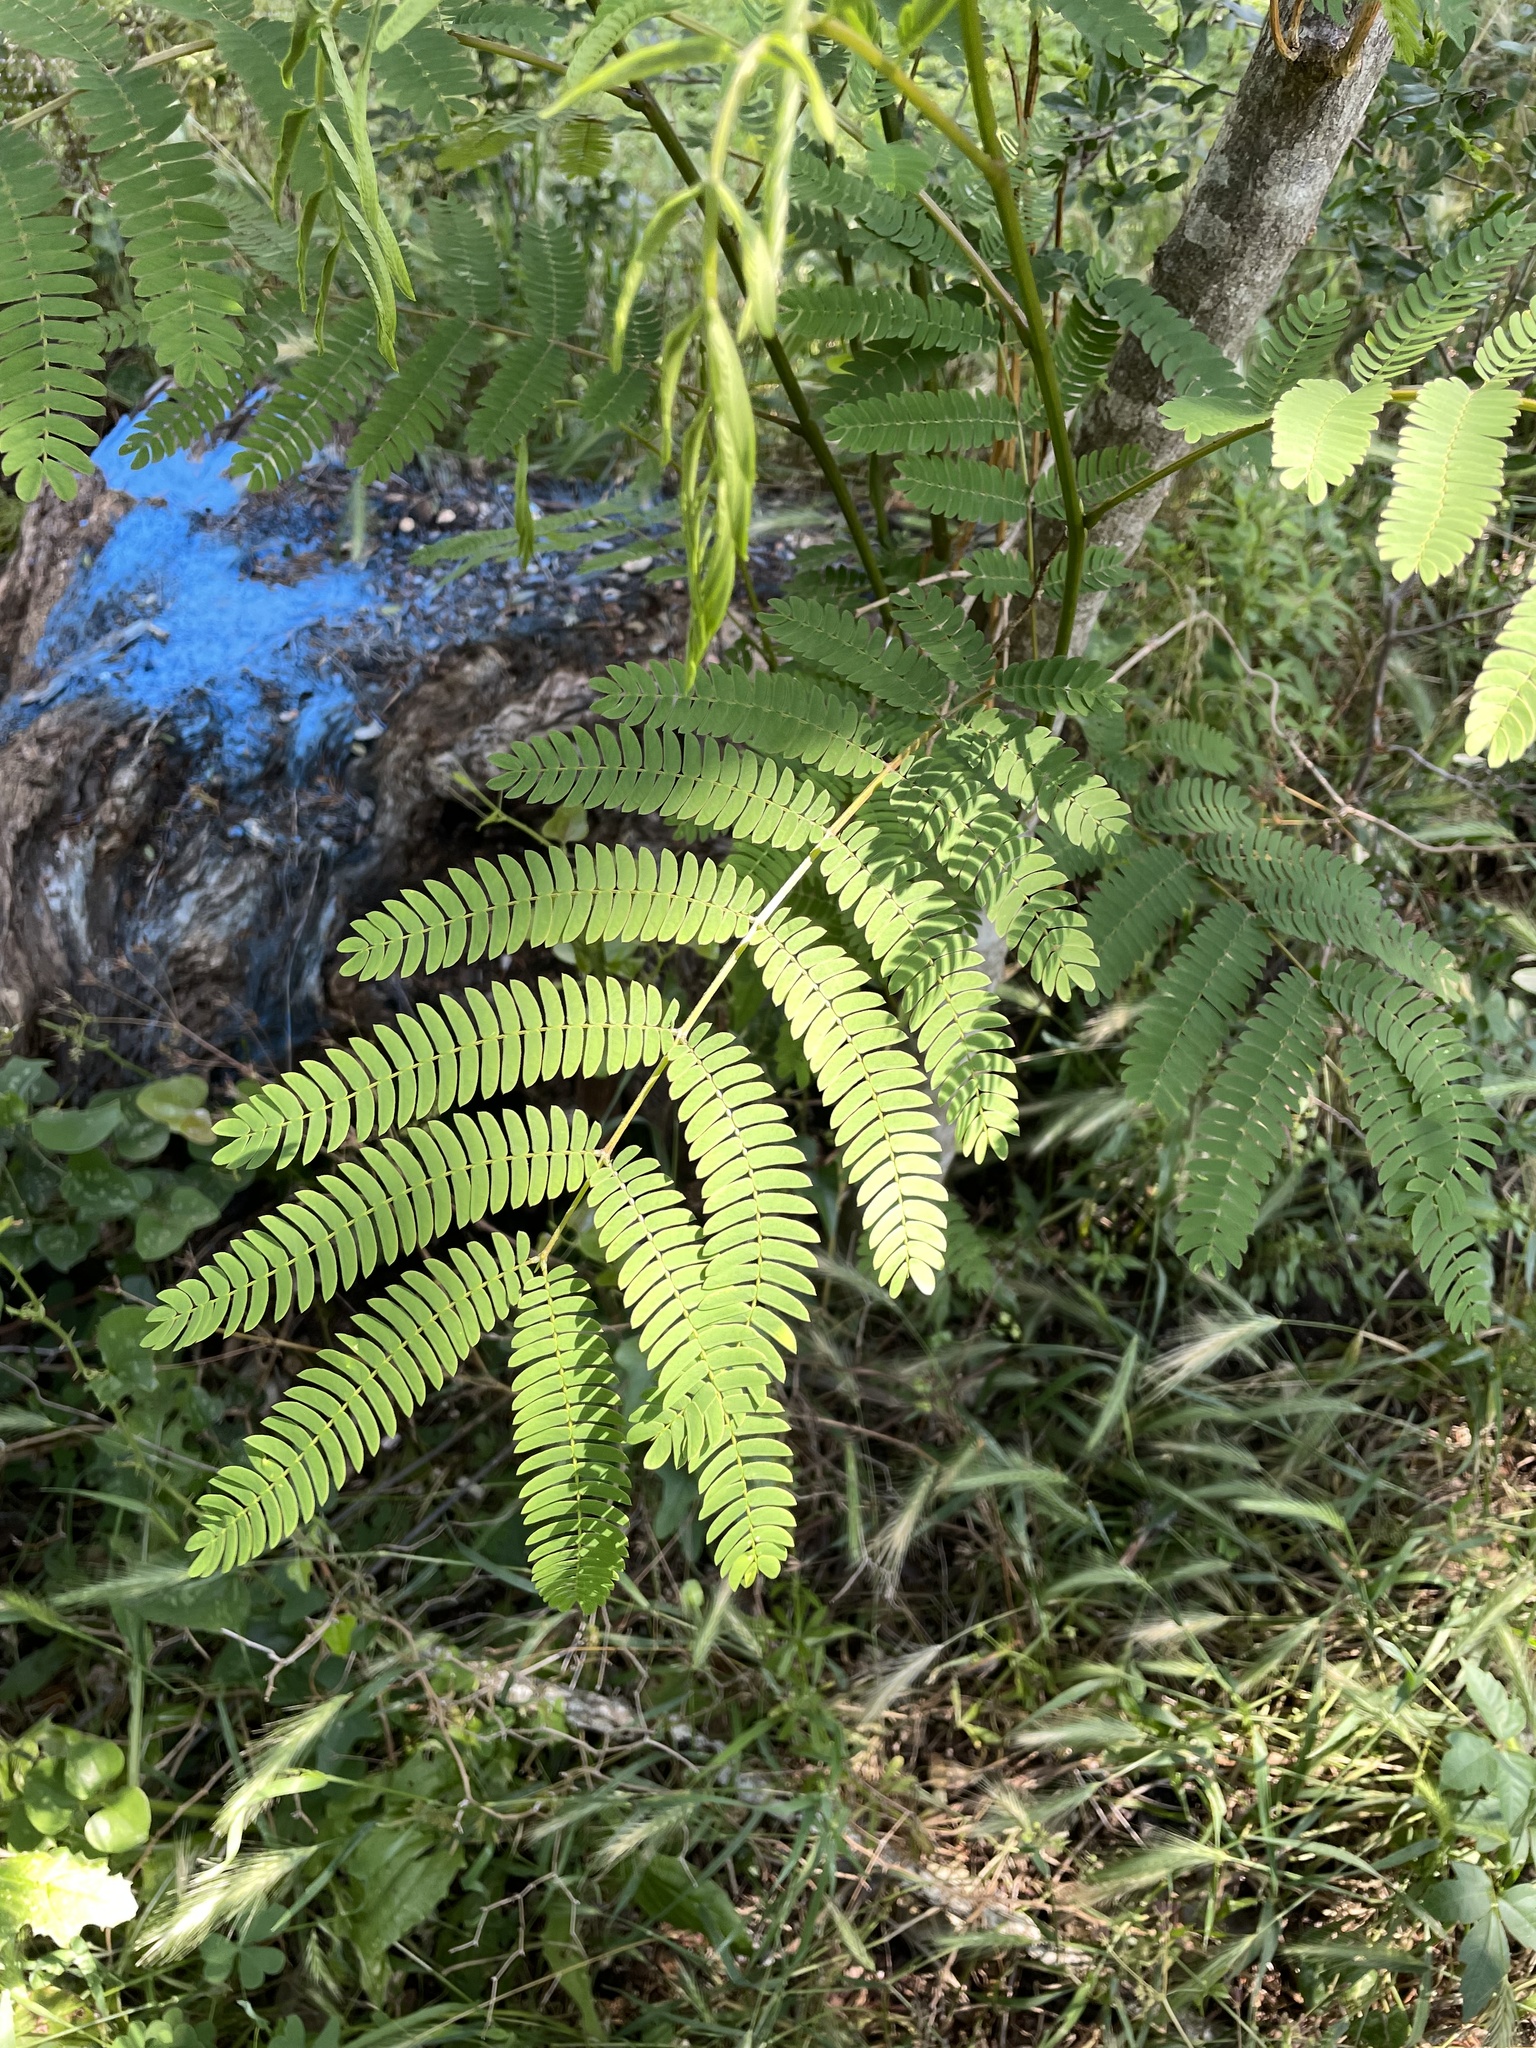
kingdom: Plantae
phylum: Tracheophyta
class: Magnoliopsida
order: Fabales
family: Fabaceae
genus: Albizia
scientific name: Albizia julibrissin
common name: Silktree
